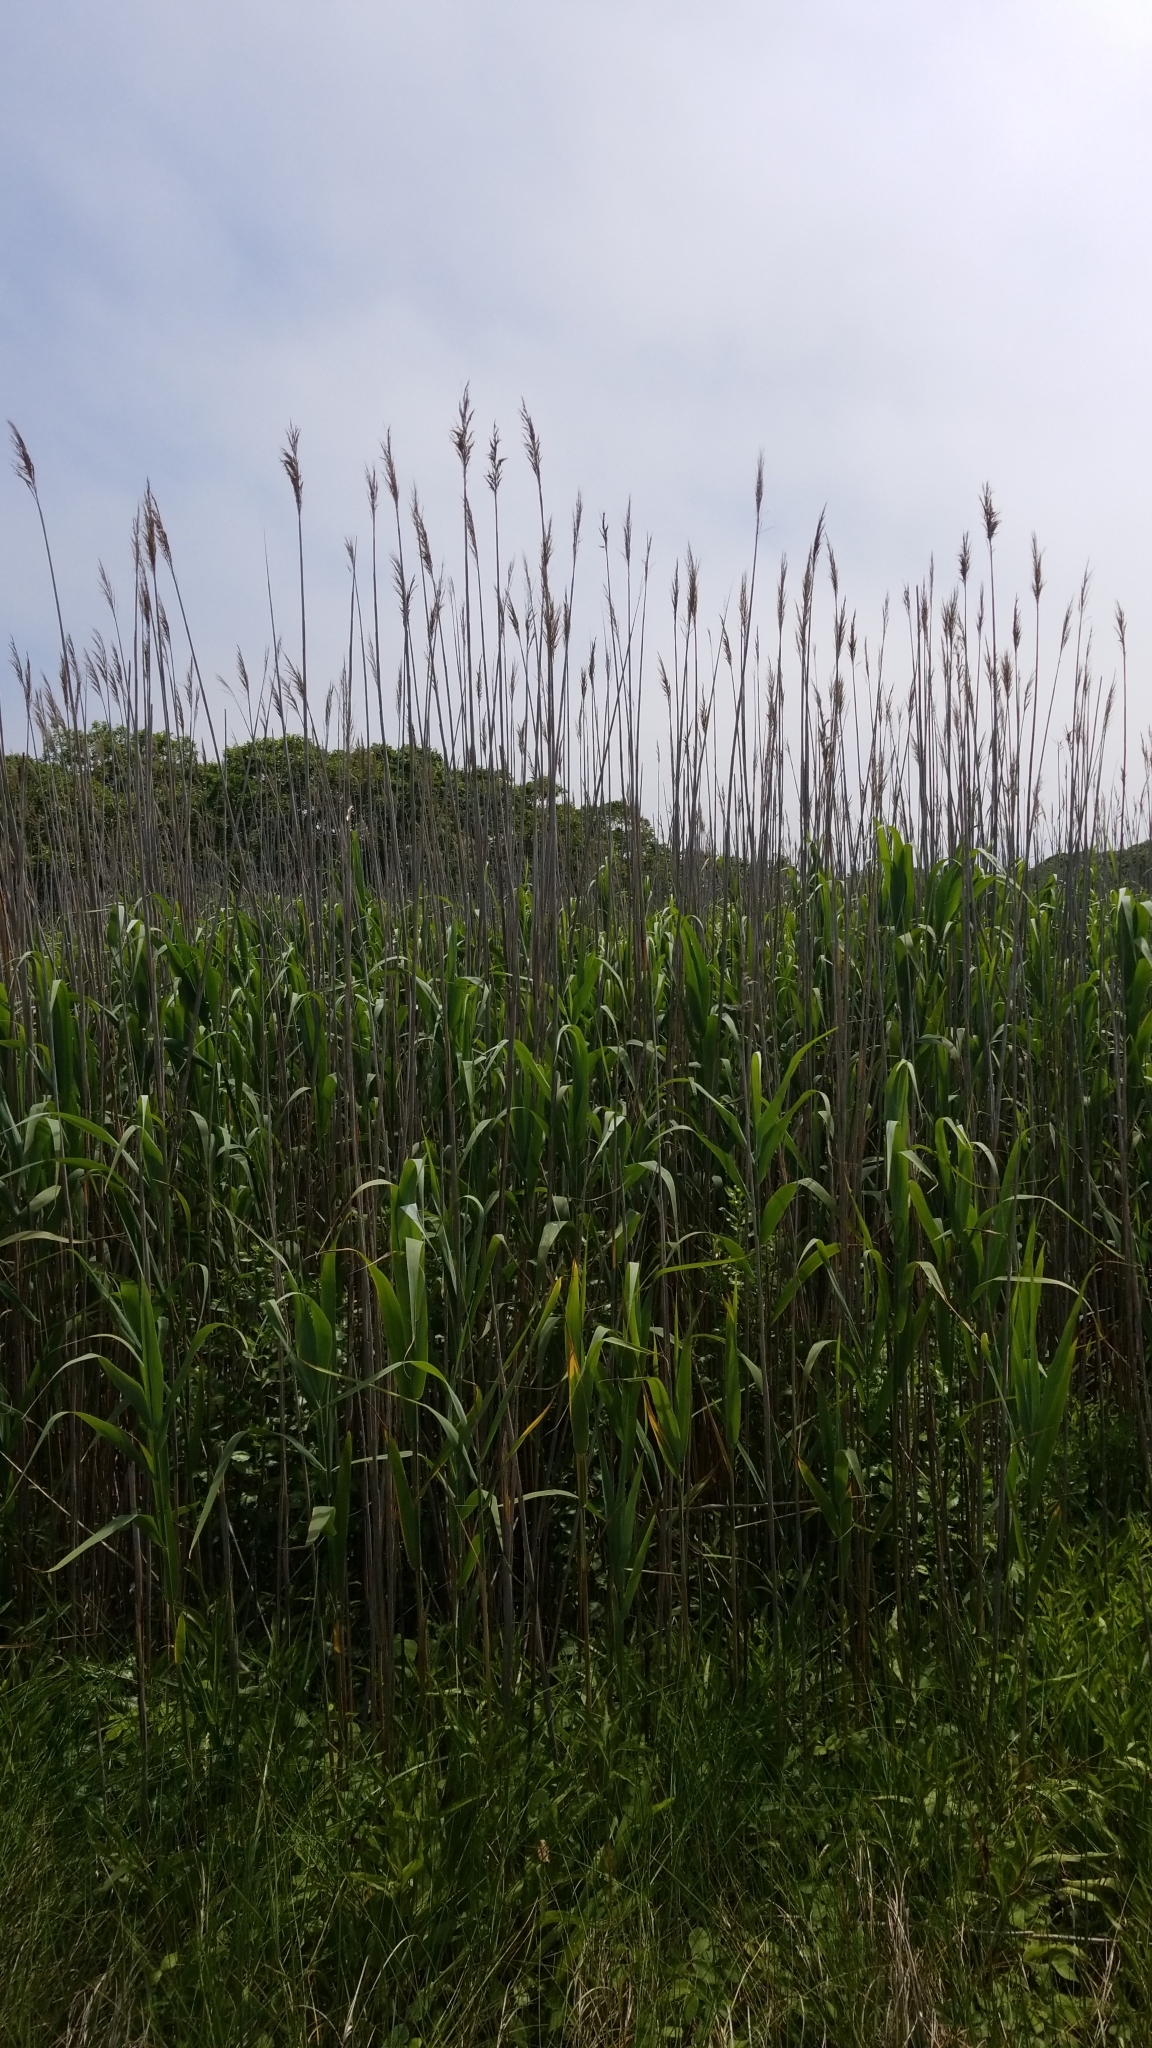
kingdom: Plantae
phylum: Tracheophyta
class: Liliopsida
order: Poales
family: Poaceae
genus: Phragmites
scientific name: Phragmites australis
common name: Common reed
